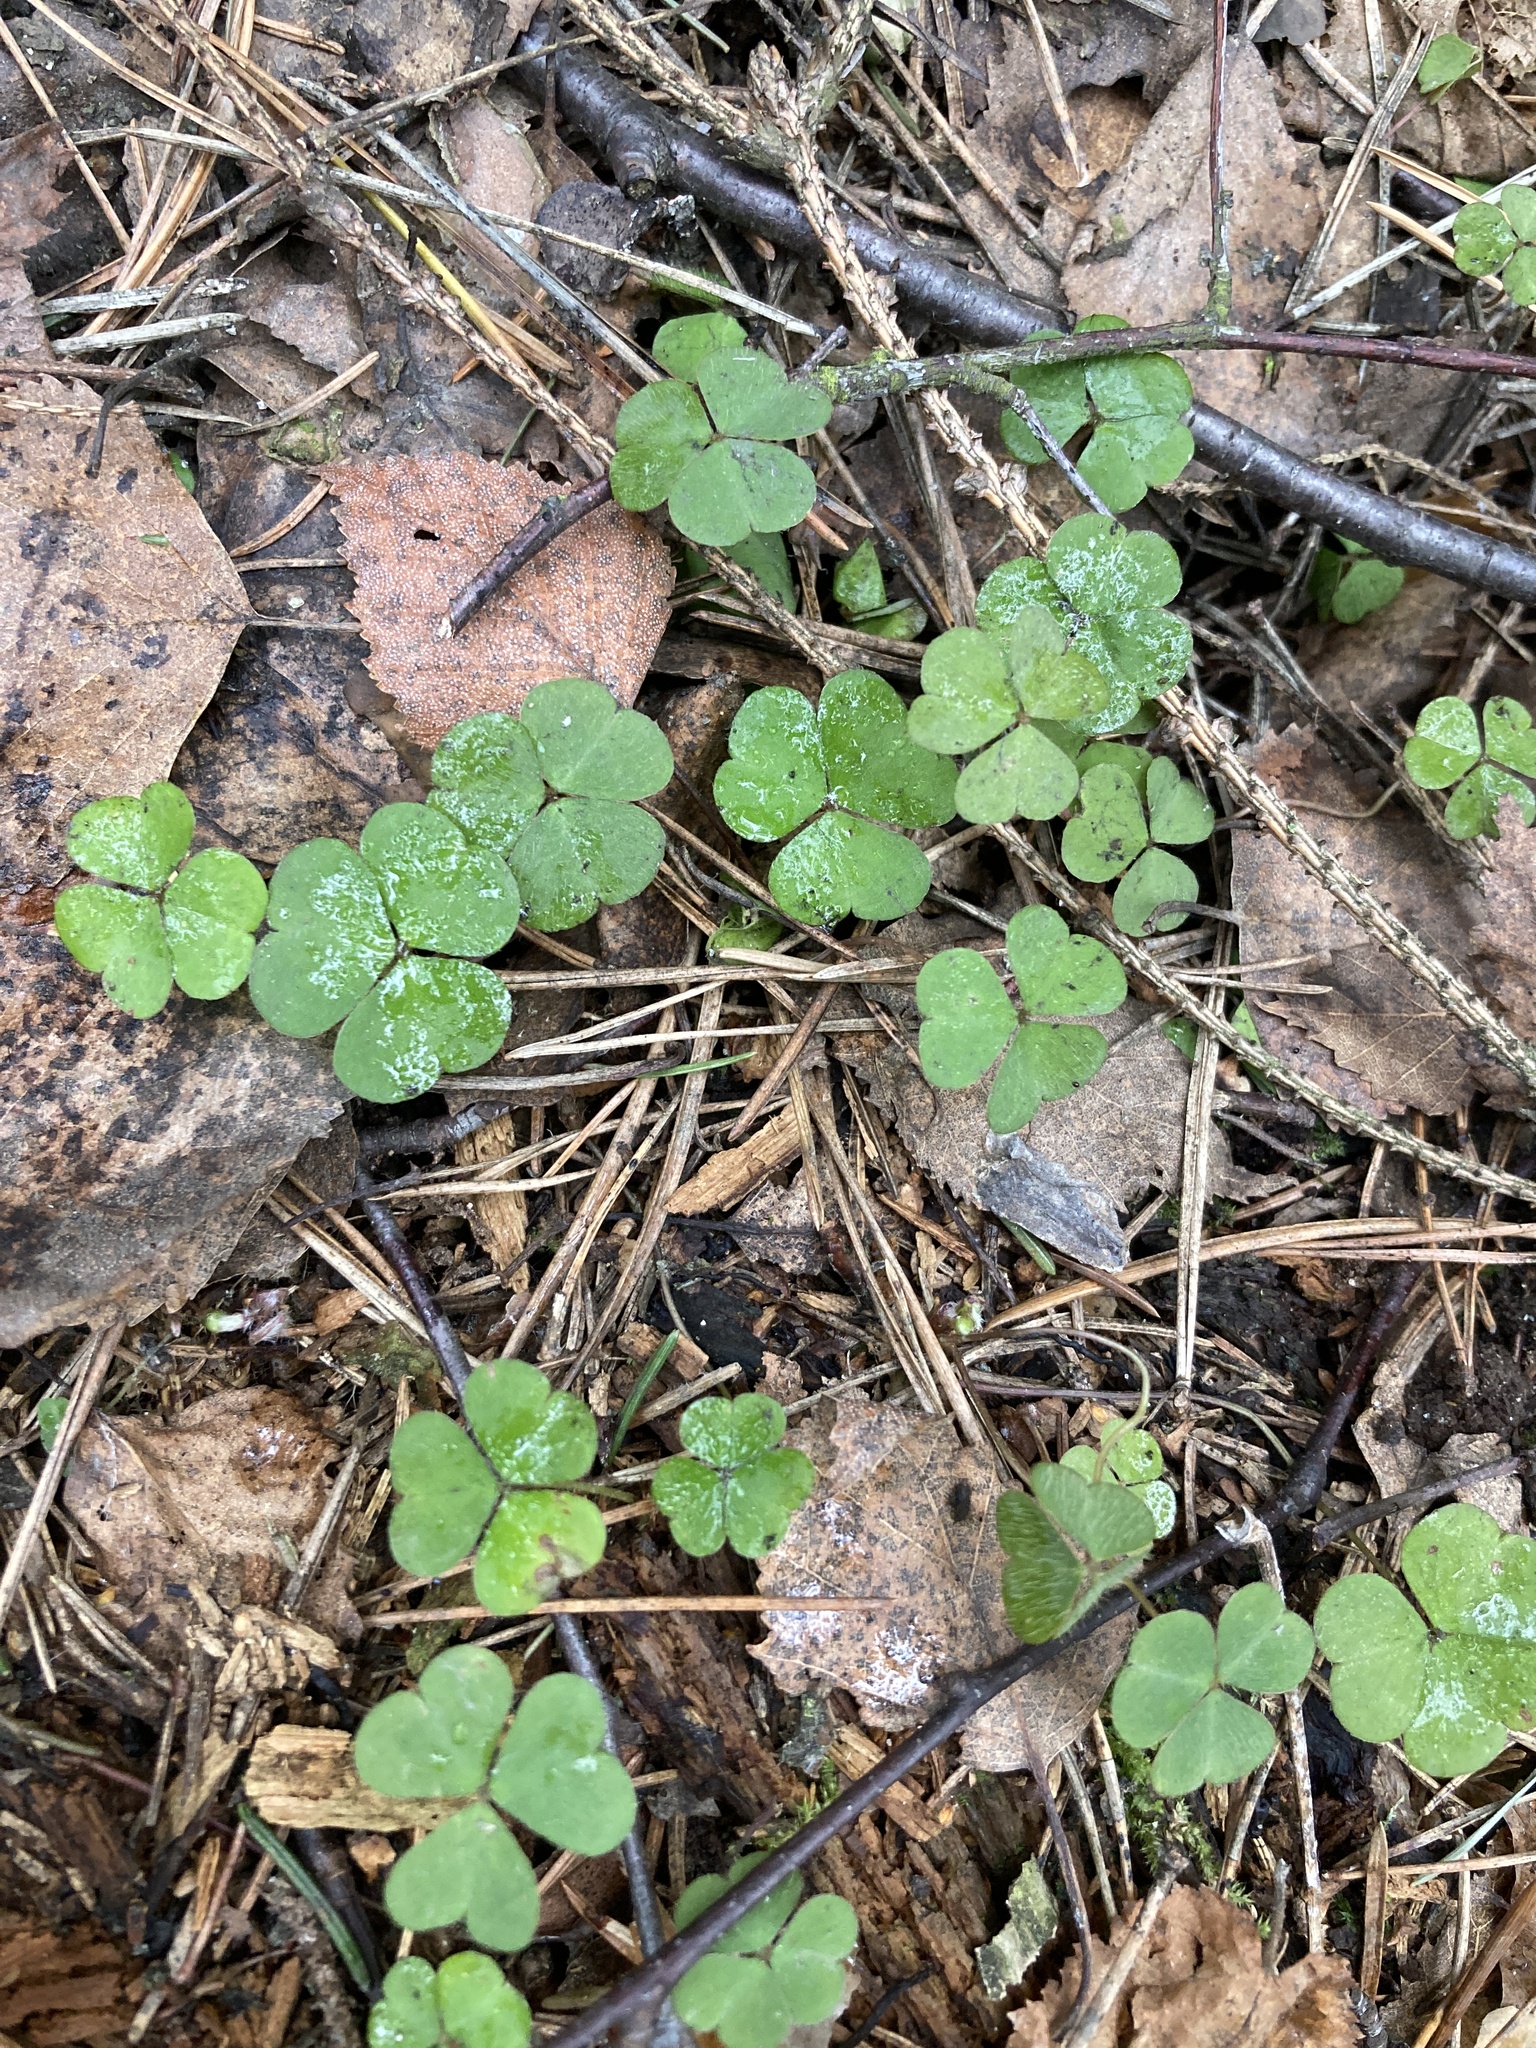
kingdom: Plantae
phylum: Tracheophyta
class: Magnoliopsida
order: Oxalidales
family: Oxalidaceae
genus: Oxalis
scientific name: Oxalis acetosella
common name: Wood-sorrel
